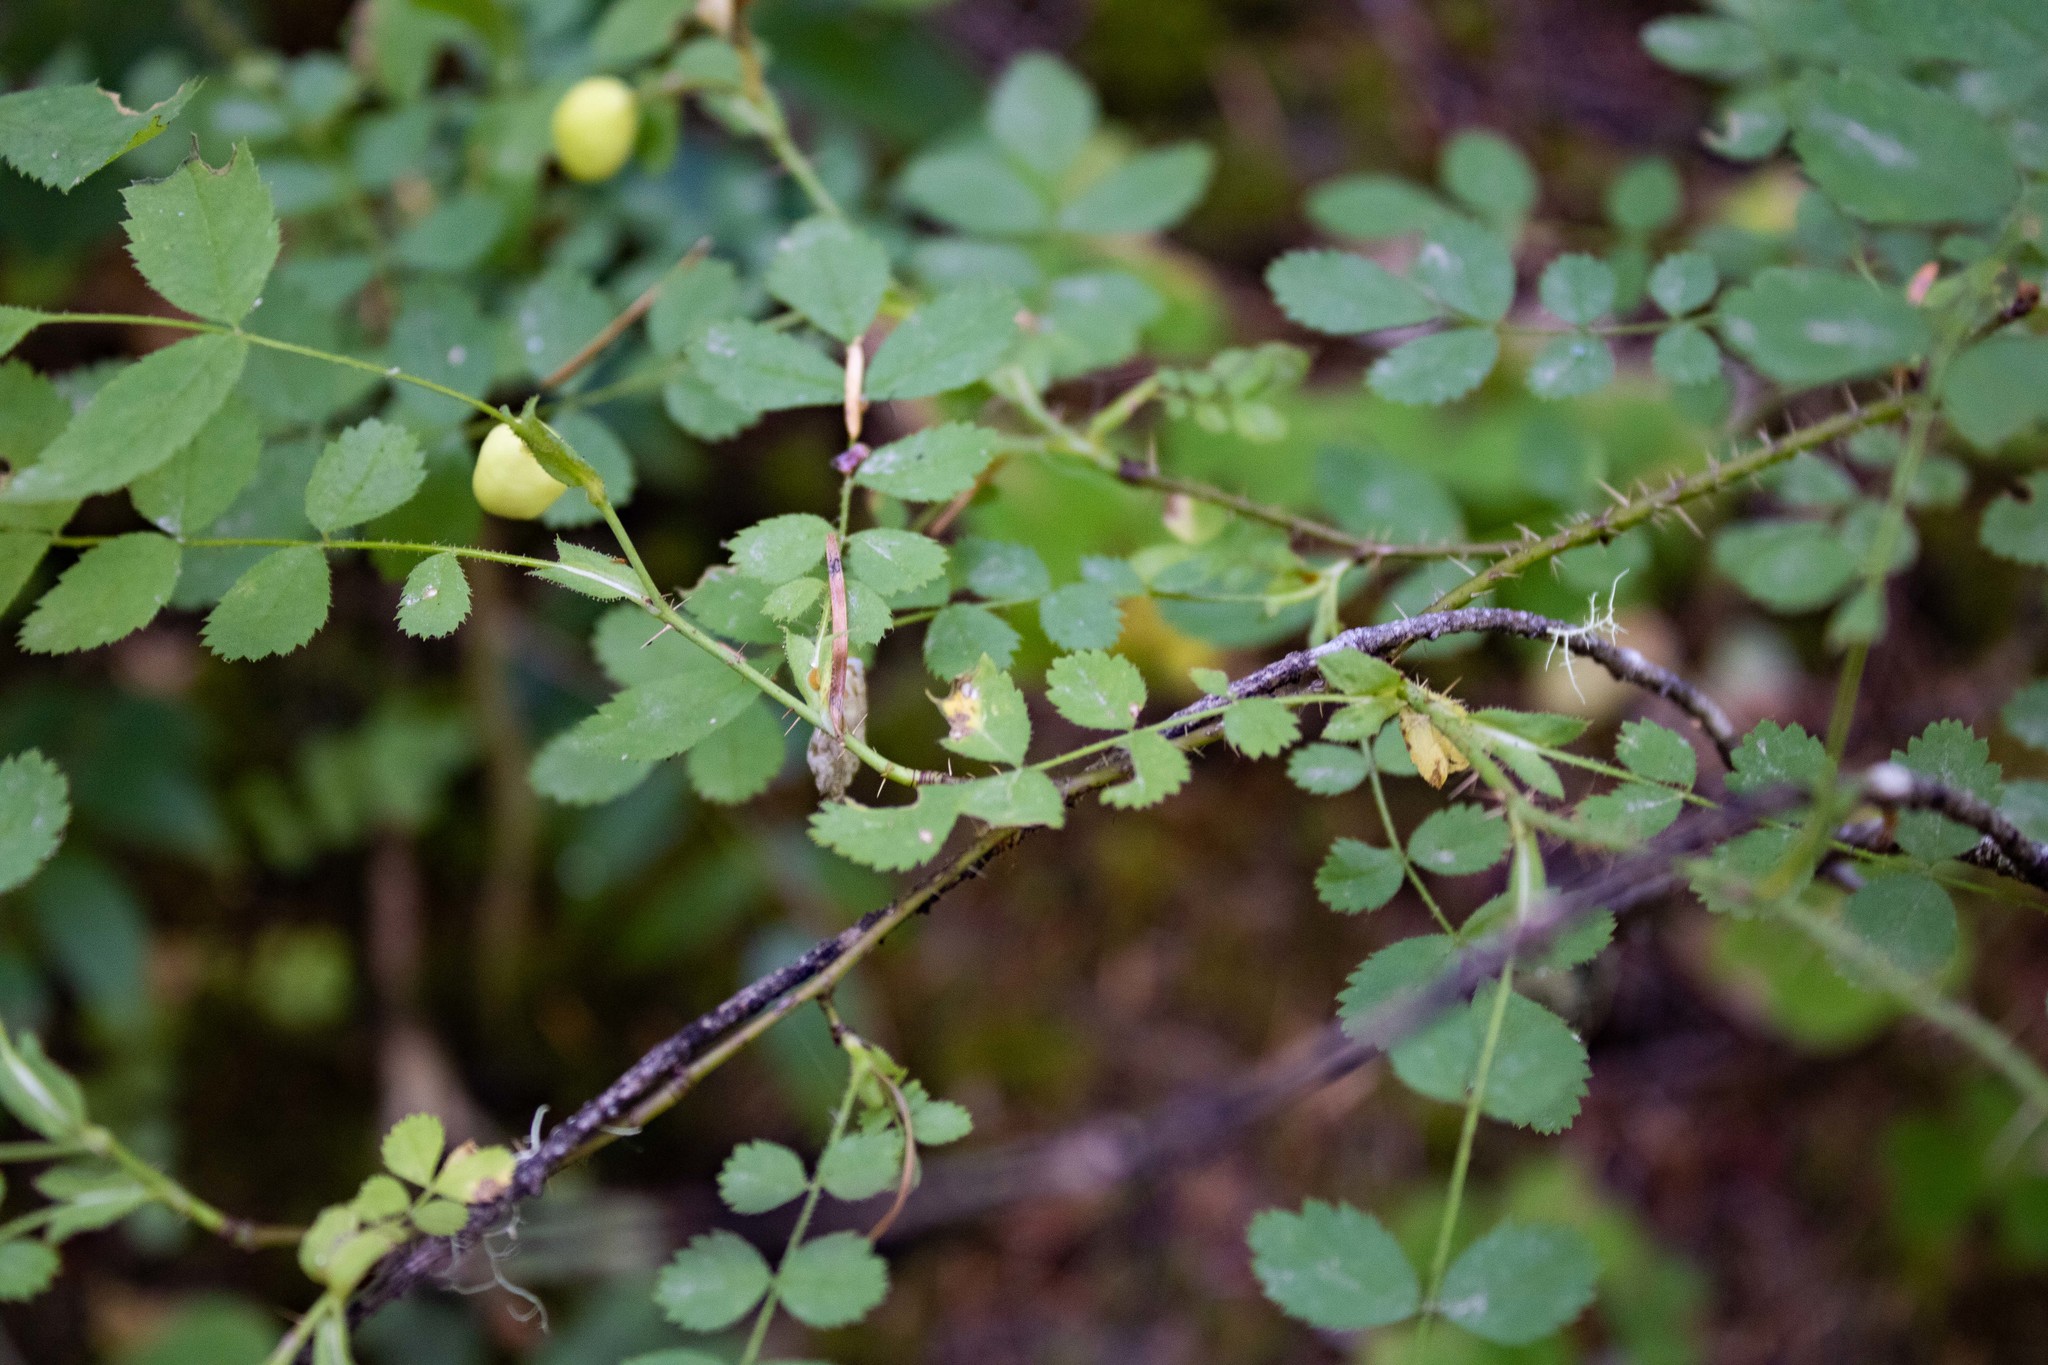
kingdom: Plantae
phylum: Tracheophyta
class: Magnoliopsida
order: Rosales
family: Rosaceae
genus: Rosa
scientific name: Rosa gymnocarpa
